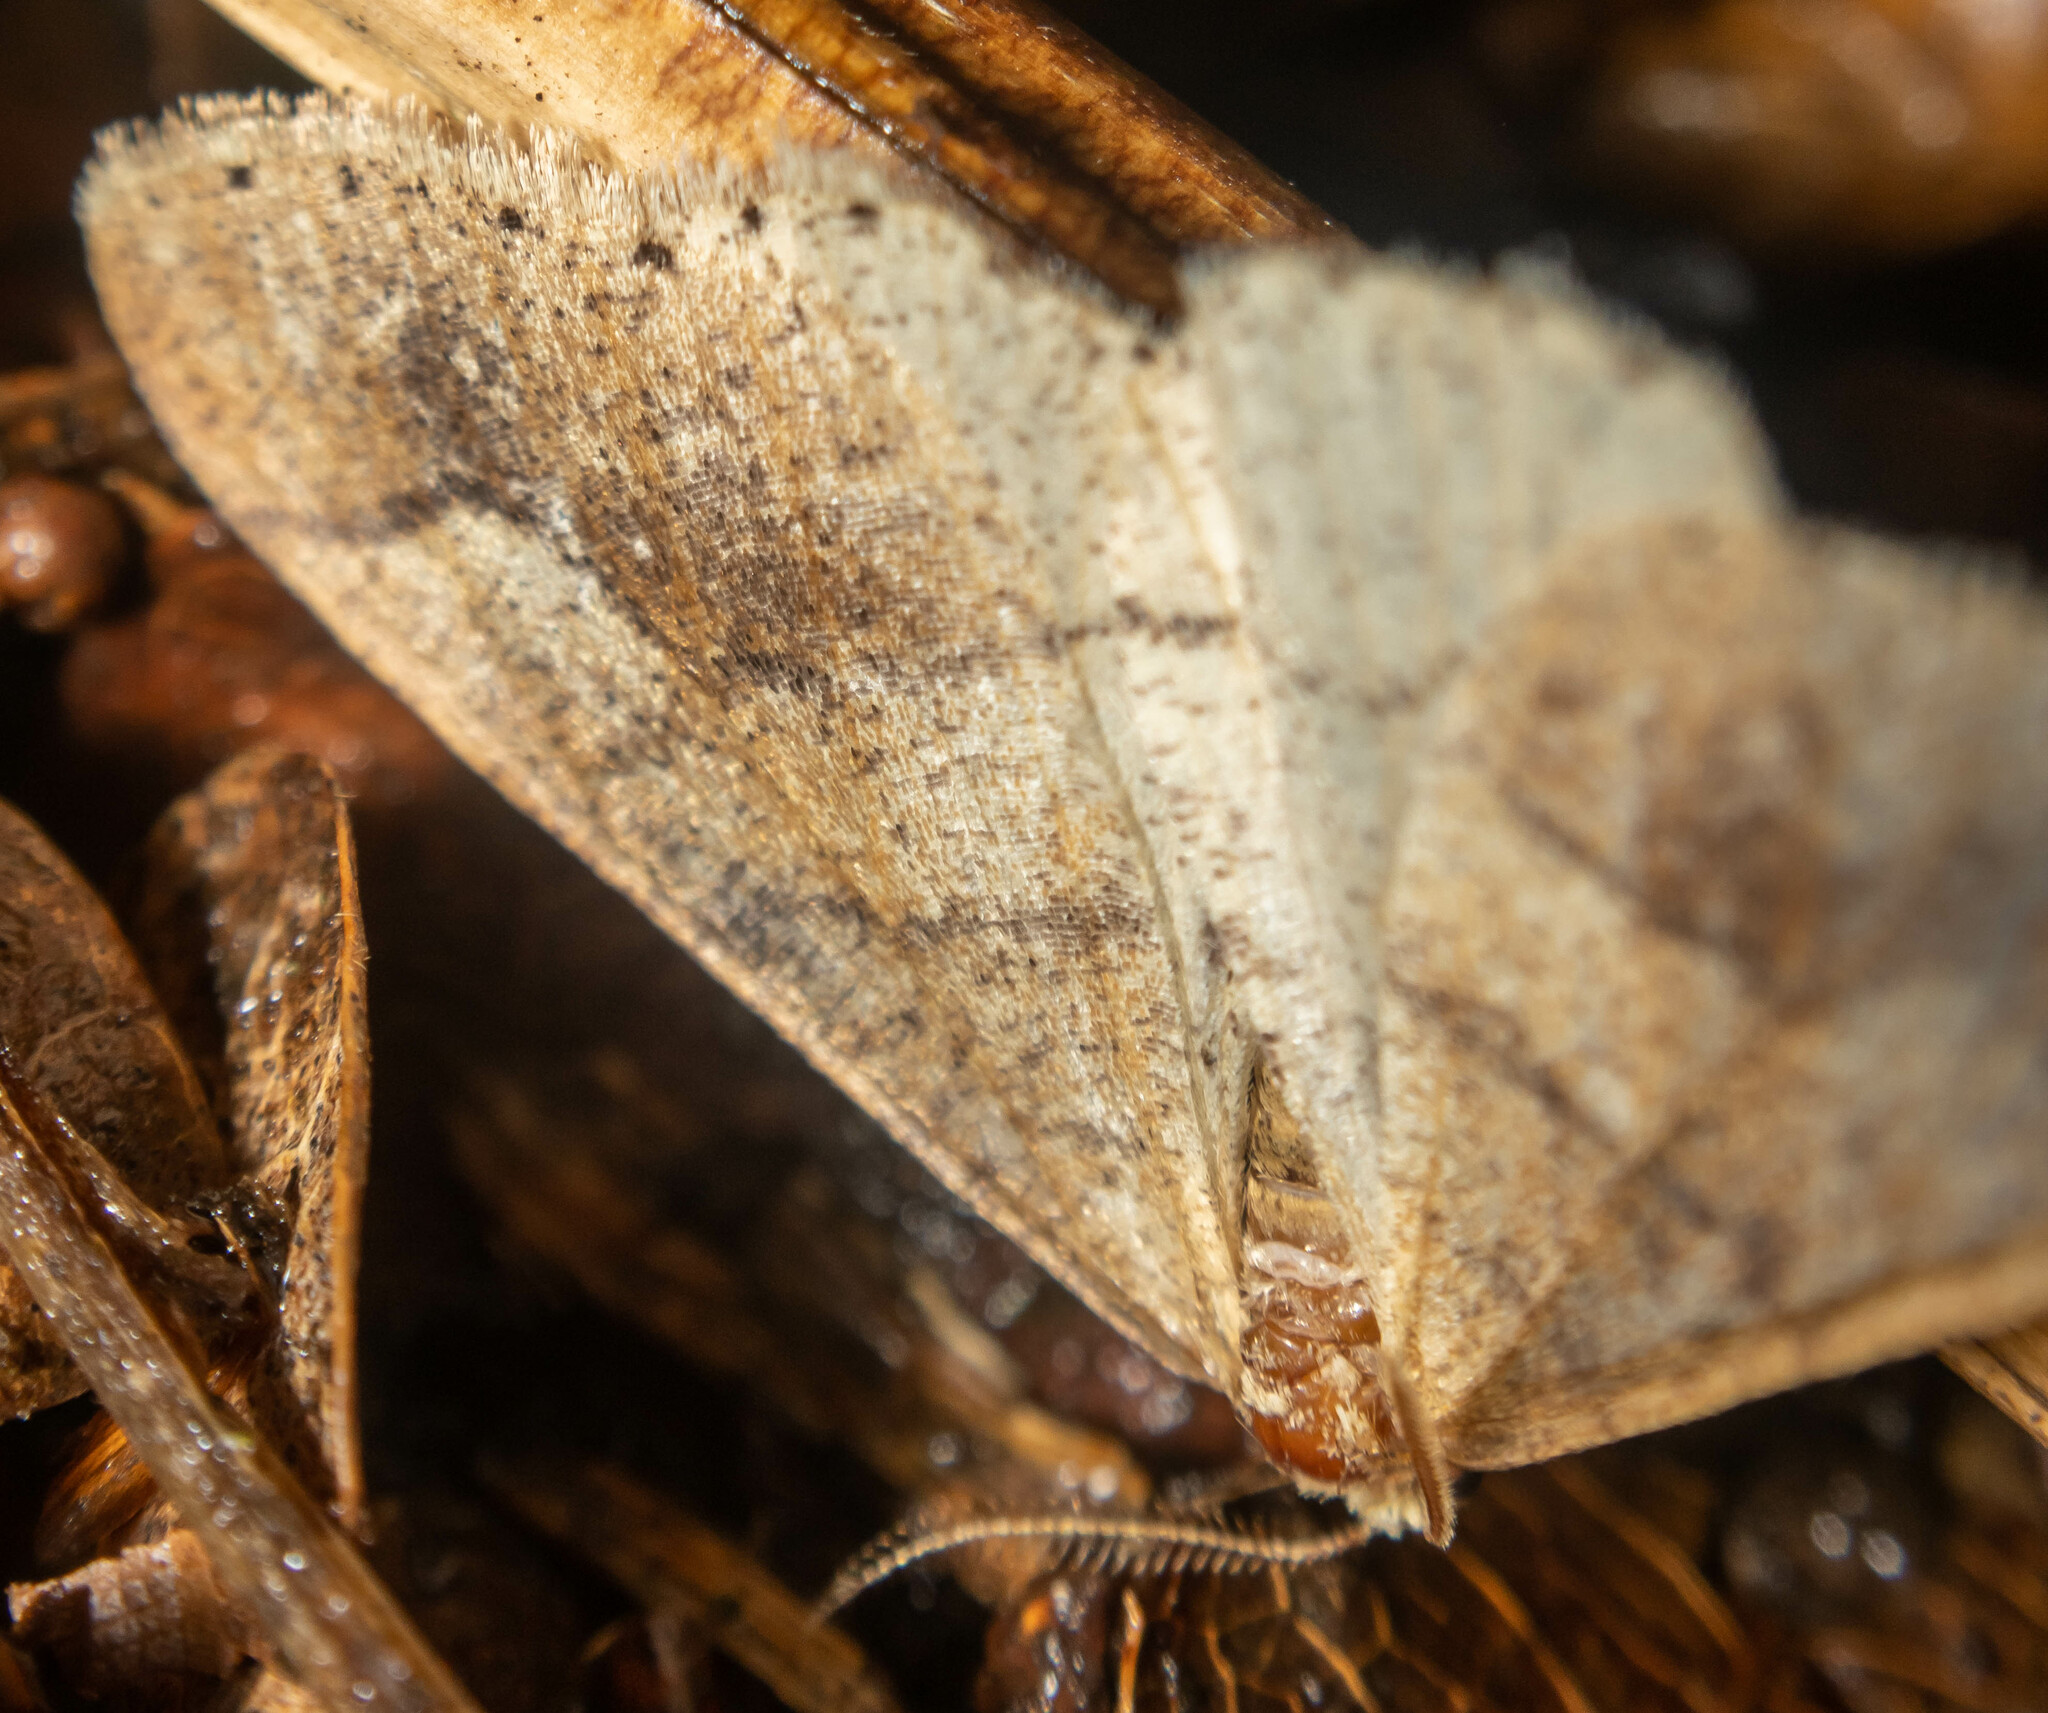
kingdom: Animalia
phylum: Arthropoda
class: Insecta
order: Lepidoptera
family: Geometridae
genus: Agriopis
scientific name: Agriopis marginaria
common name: Dotted border
